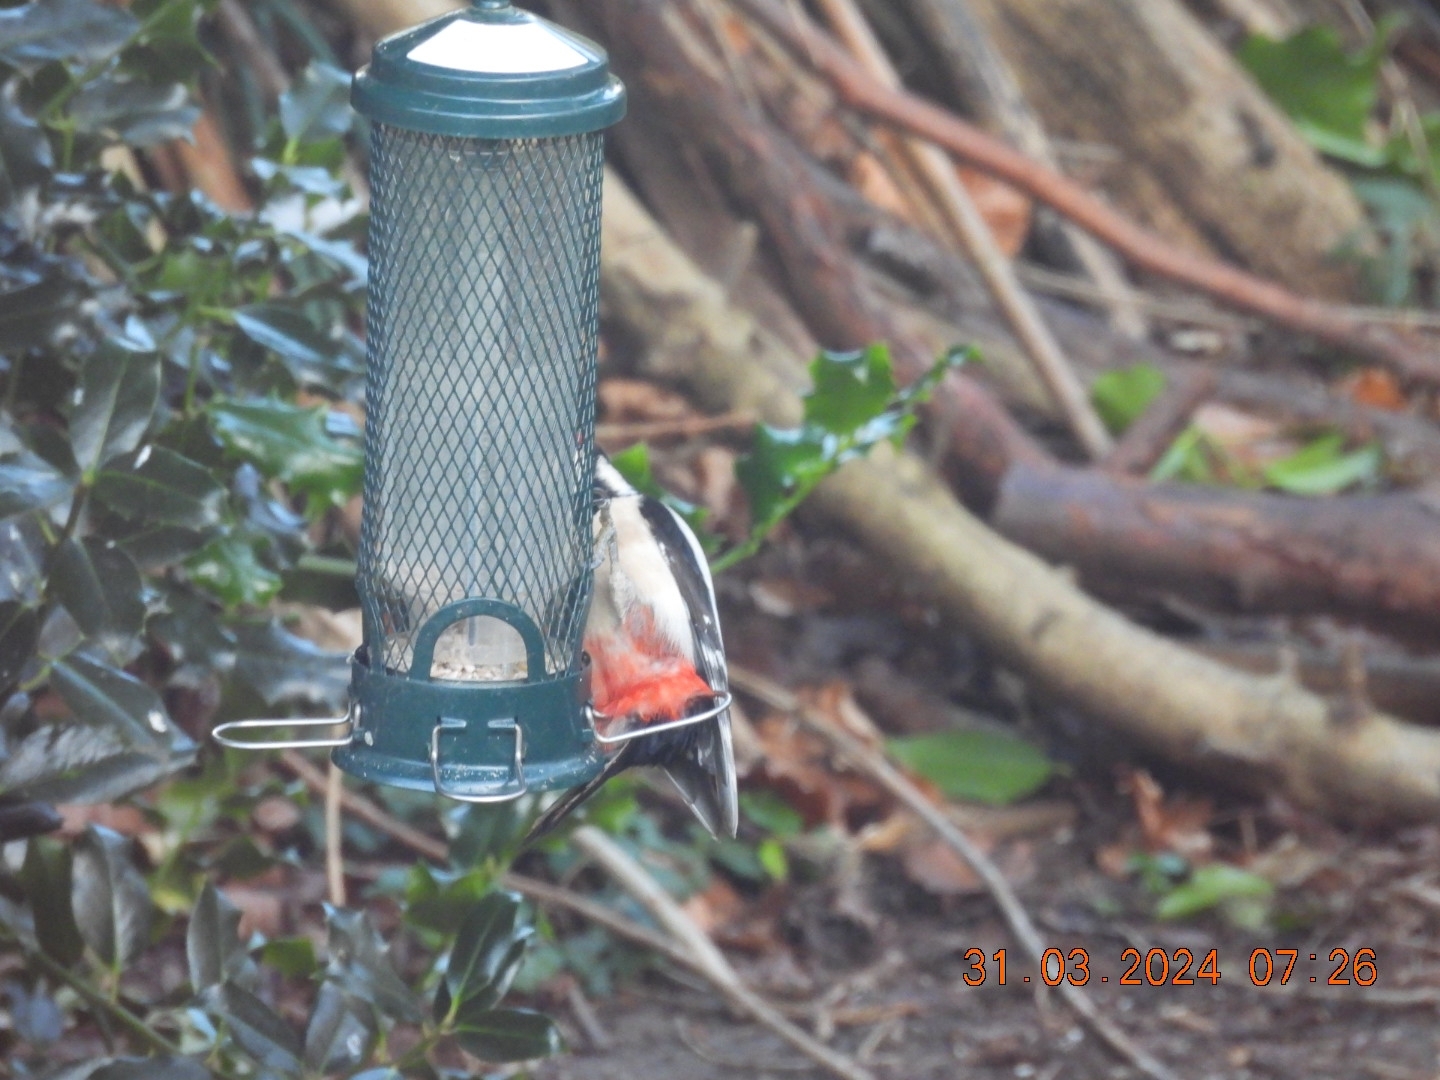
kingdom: Animalia
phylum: Chordata
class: Aves
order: Piciformes
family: Picidae
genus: Dendrocopos
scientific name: Dendrocopos major
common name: Great spotted woodpecker
